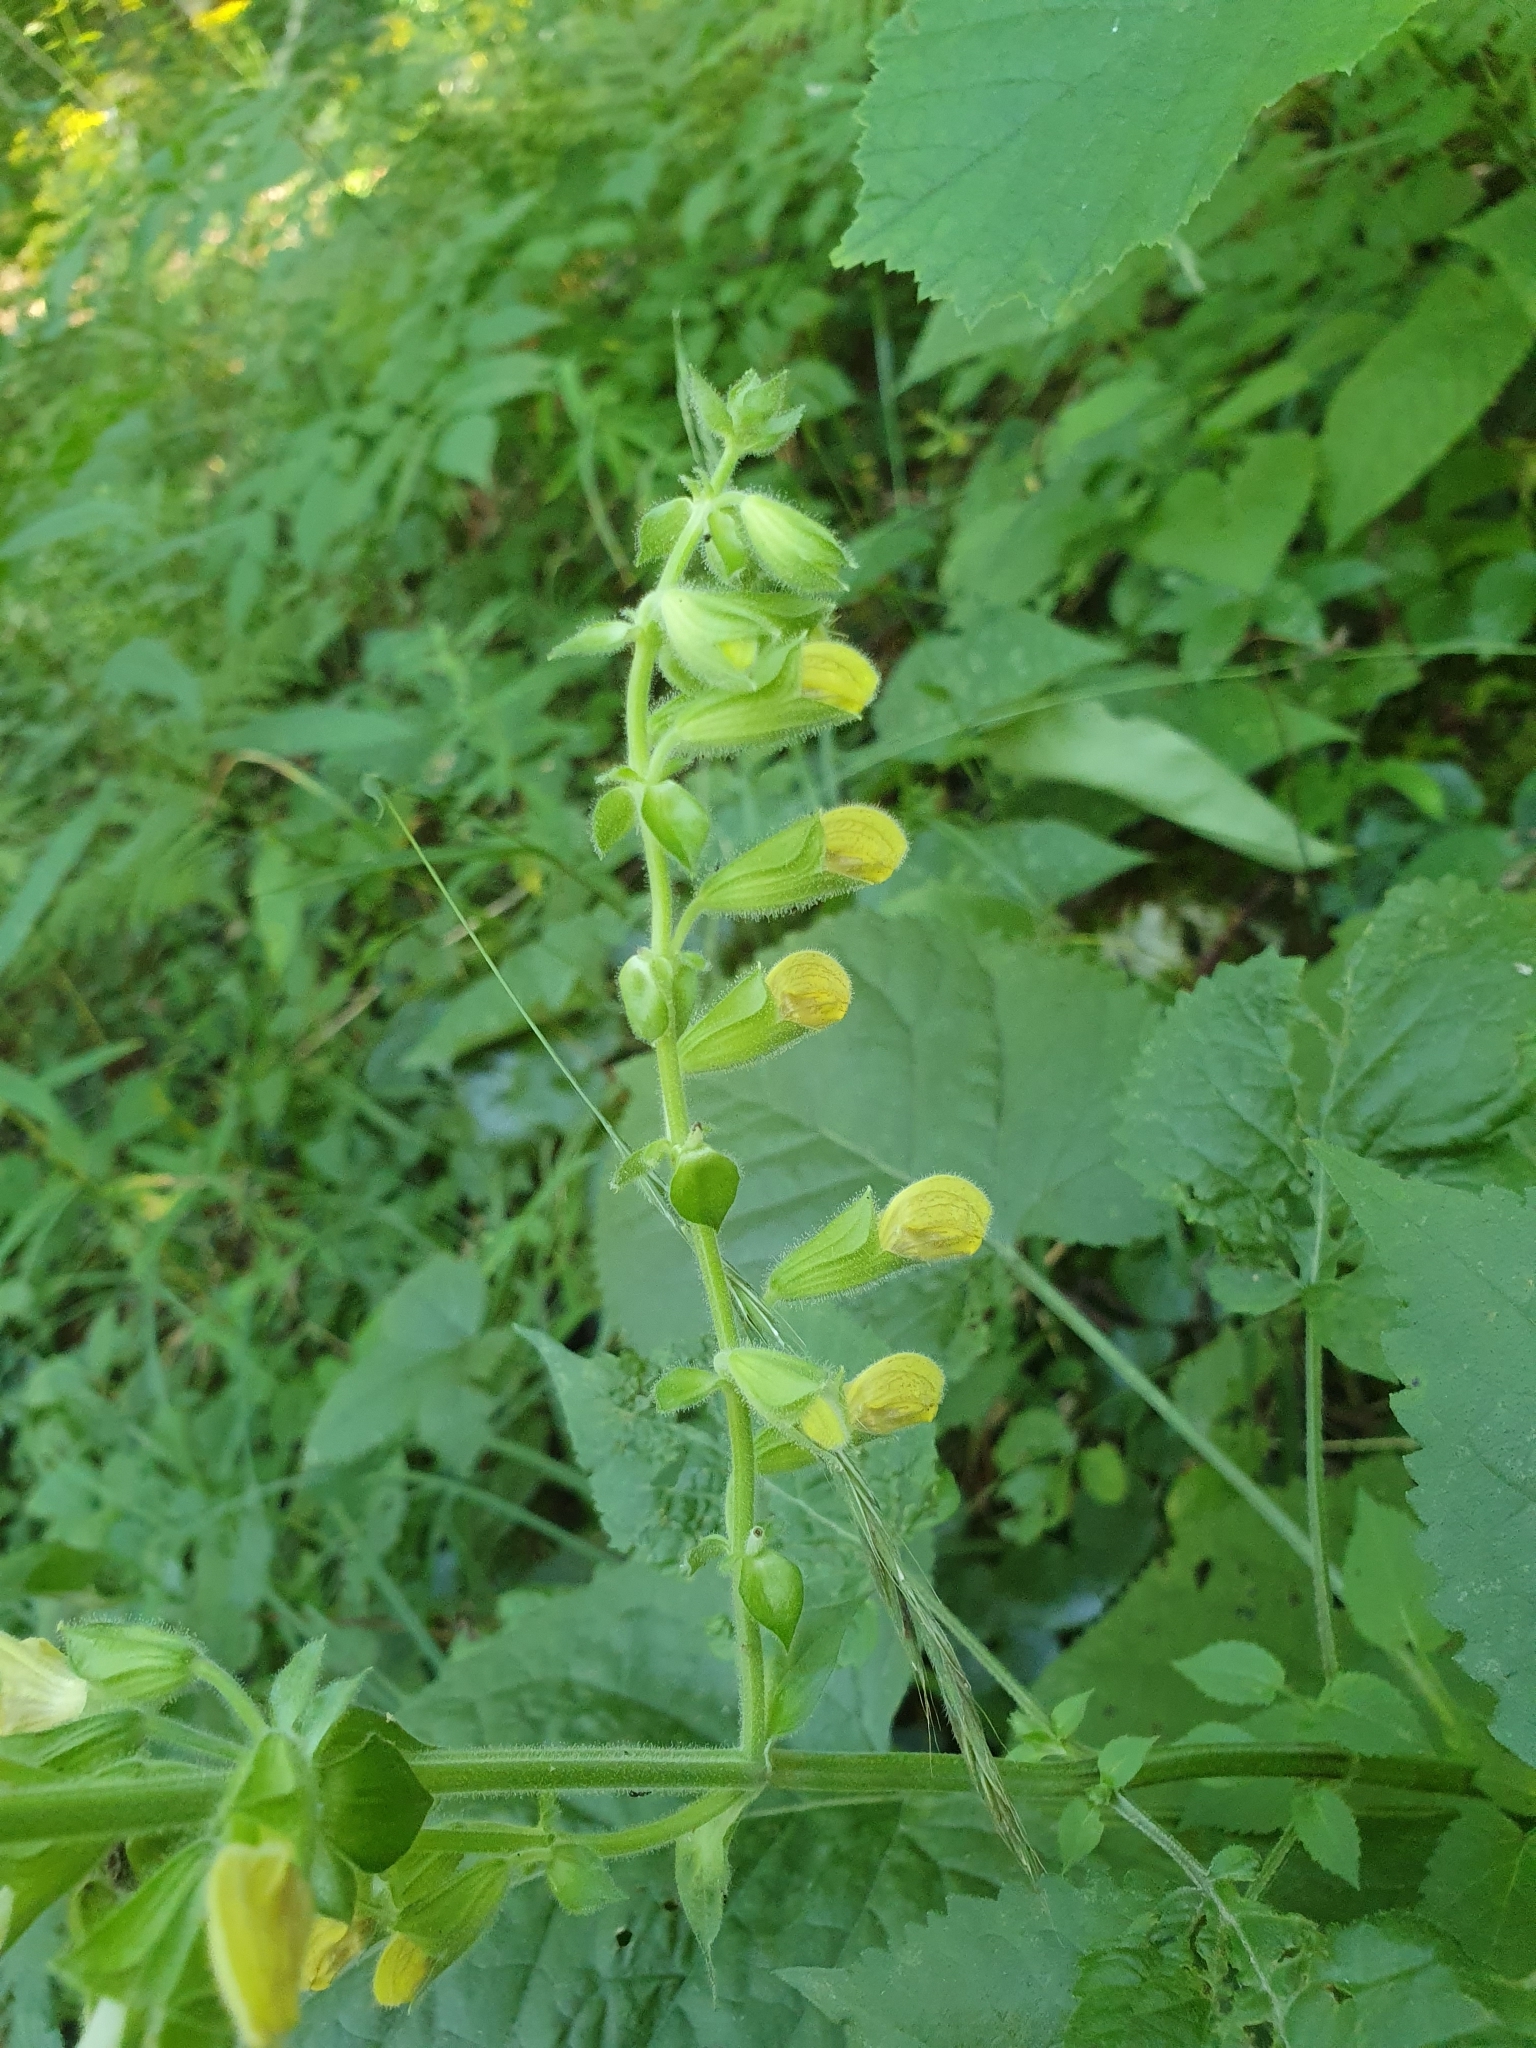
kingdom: Plantae
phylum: Tracheophyta
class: Magnoliopsida
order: Lamiales
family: Lamiaceae
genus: Salvia
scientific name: Salvia glutinosa
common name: Sticky clary
